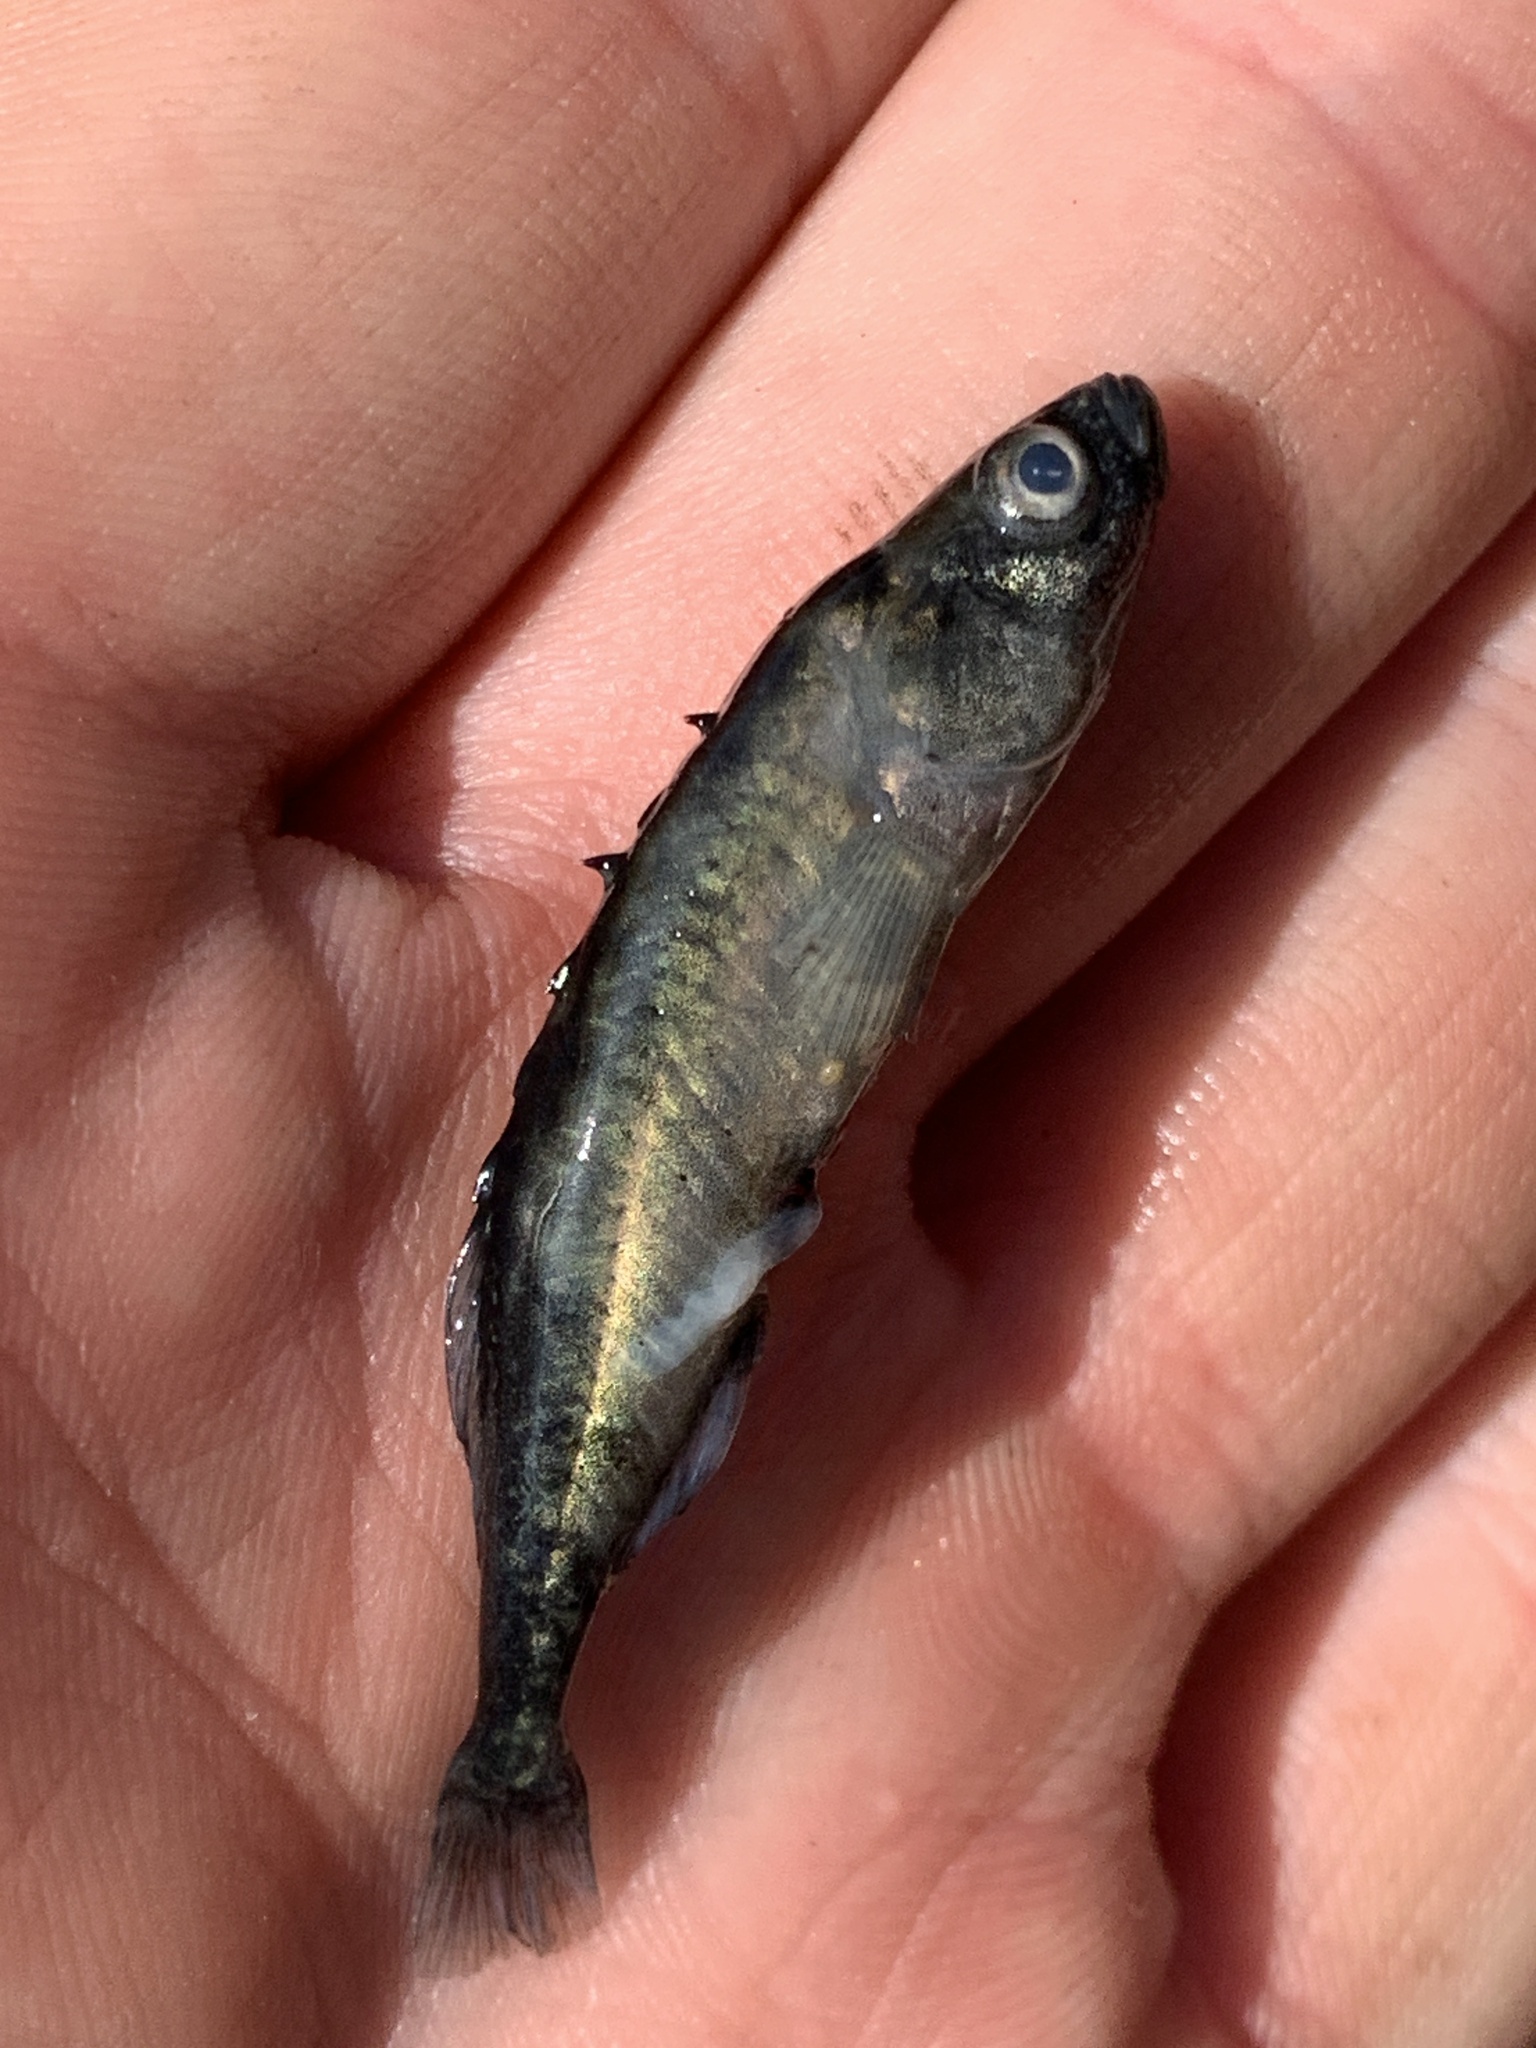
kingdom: Animalia
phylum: Chordata
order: Gasterosteiformes
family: Gasterosteidae
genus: Culaea
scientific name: Culaea inconstans
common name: Brook stickleback
